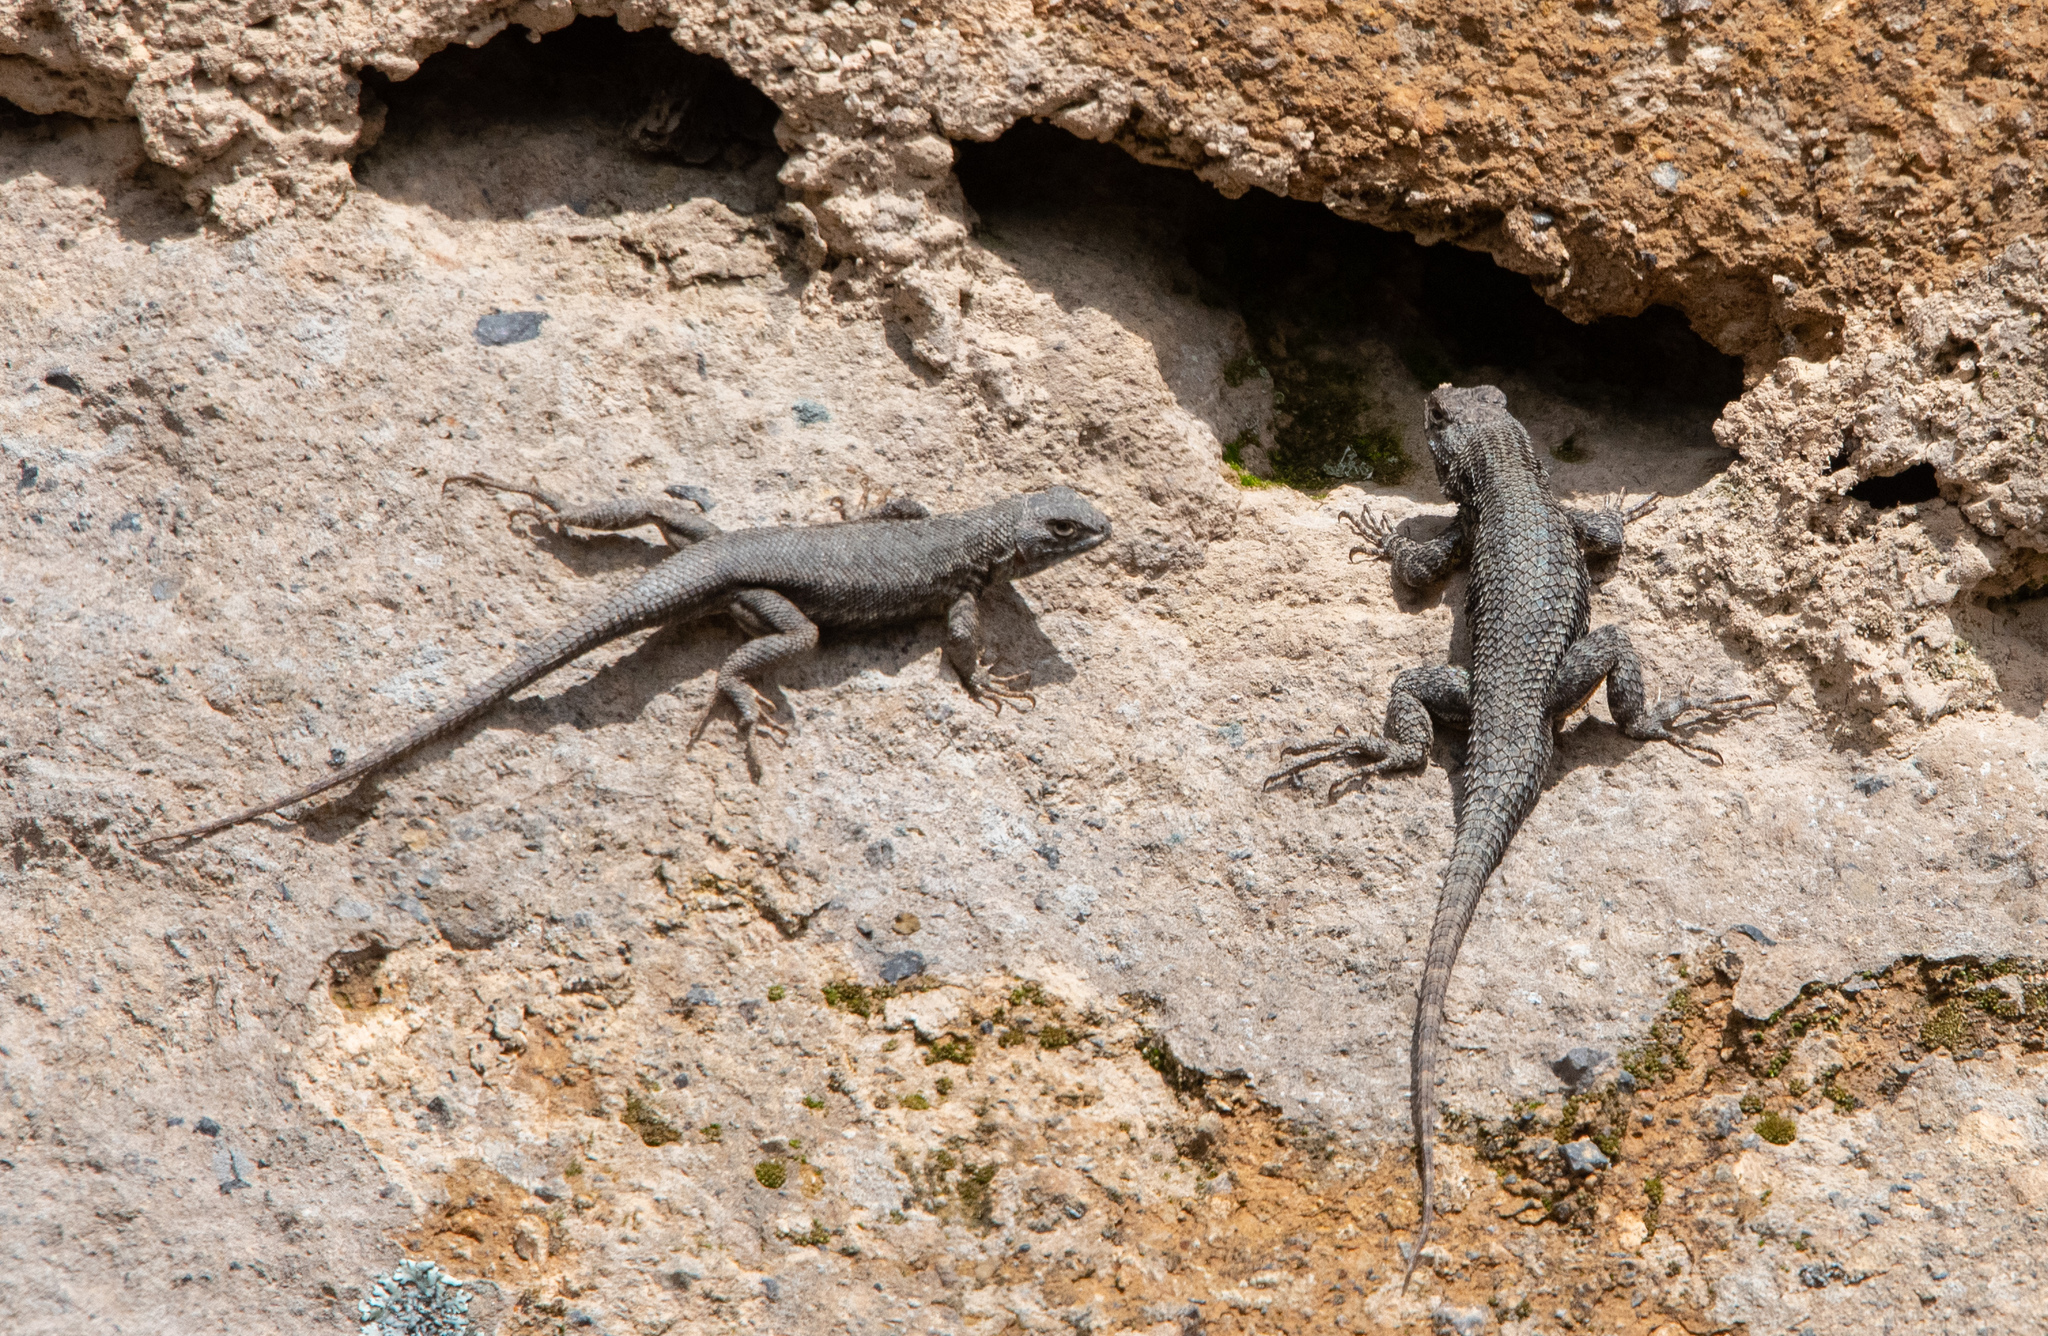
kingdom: Animalia
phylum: Chordata
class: Squamata
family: Phrynosomatidae
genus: Sceloporus
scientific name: Sceloporus occidentalis
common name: Western fence lizard
